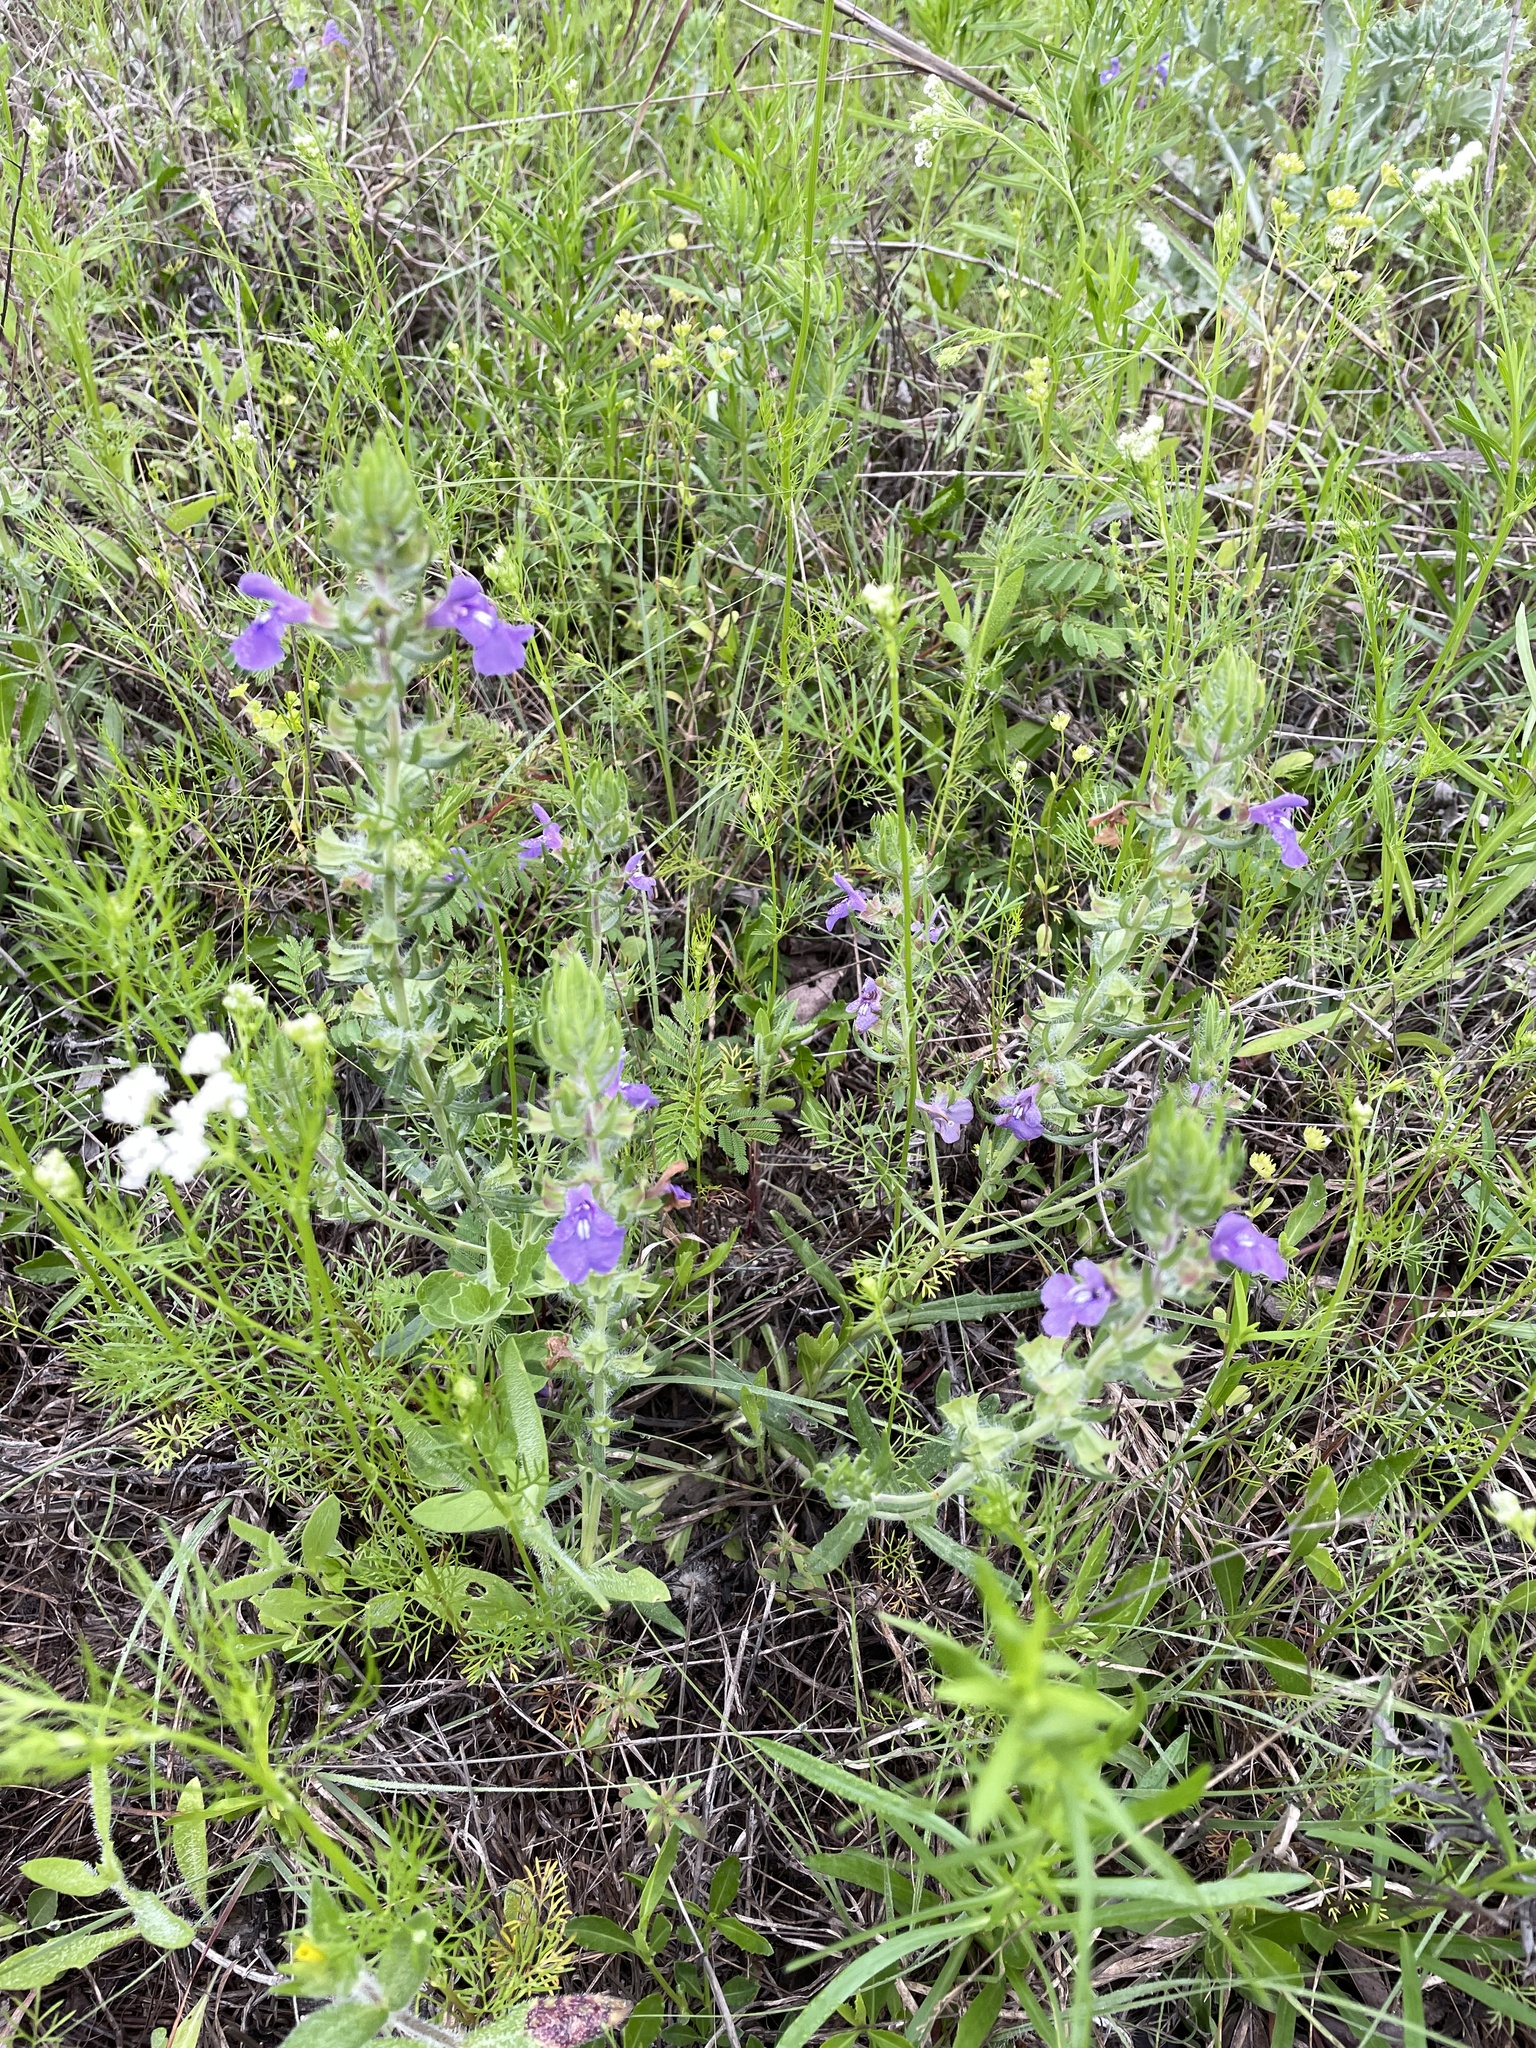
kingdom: Plantae
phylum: Tracheophyta
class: Magnoliopsida
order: Lamiales
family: Lamiaceae
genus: Salvia
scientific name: Salvia texana
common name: Texas sage
